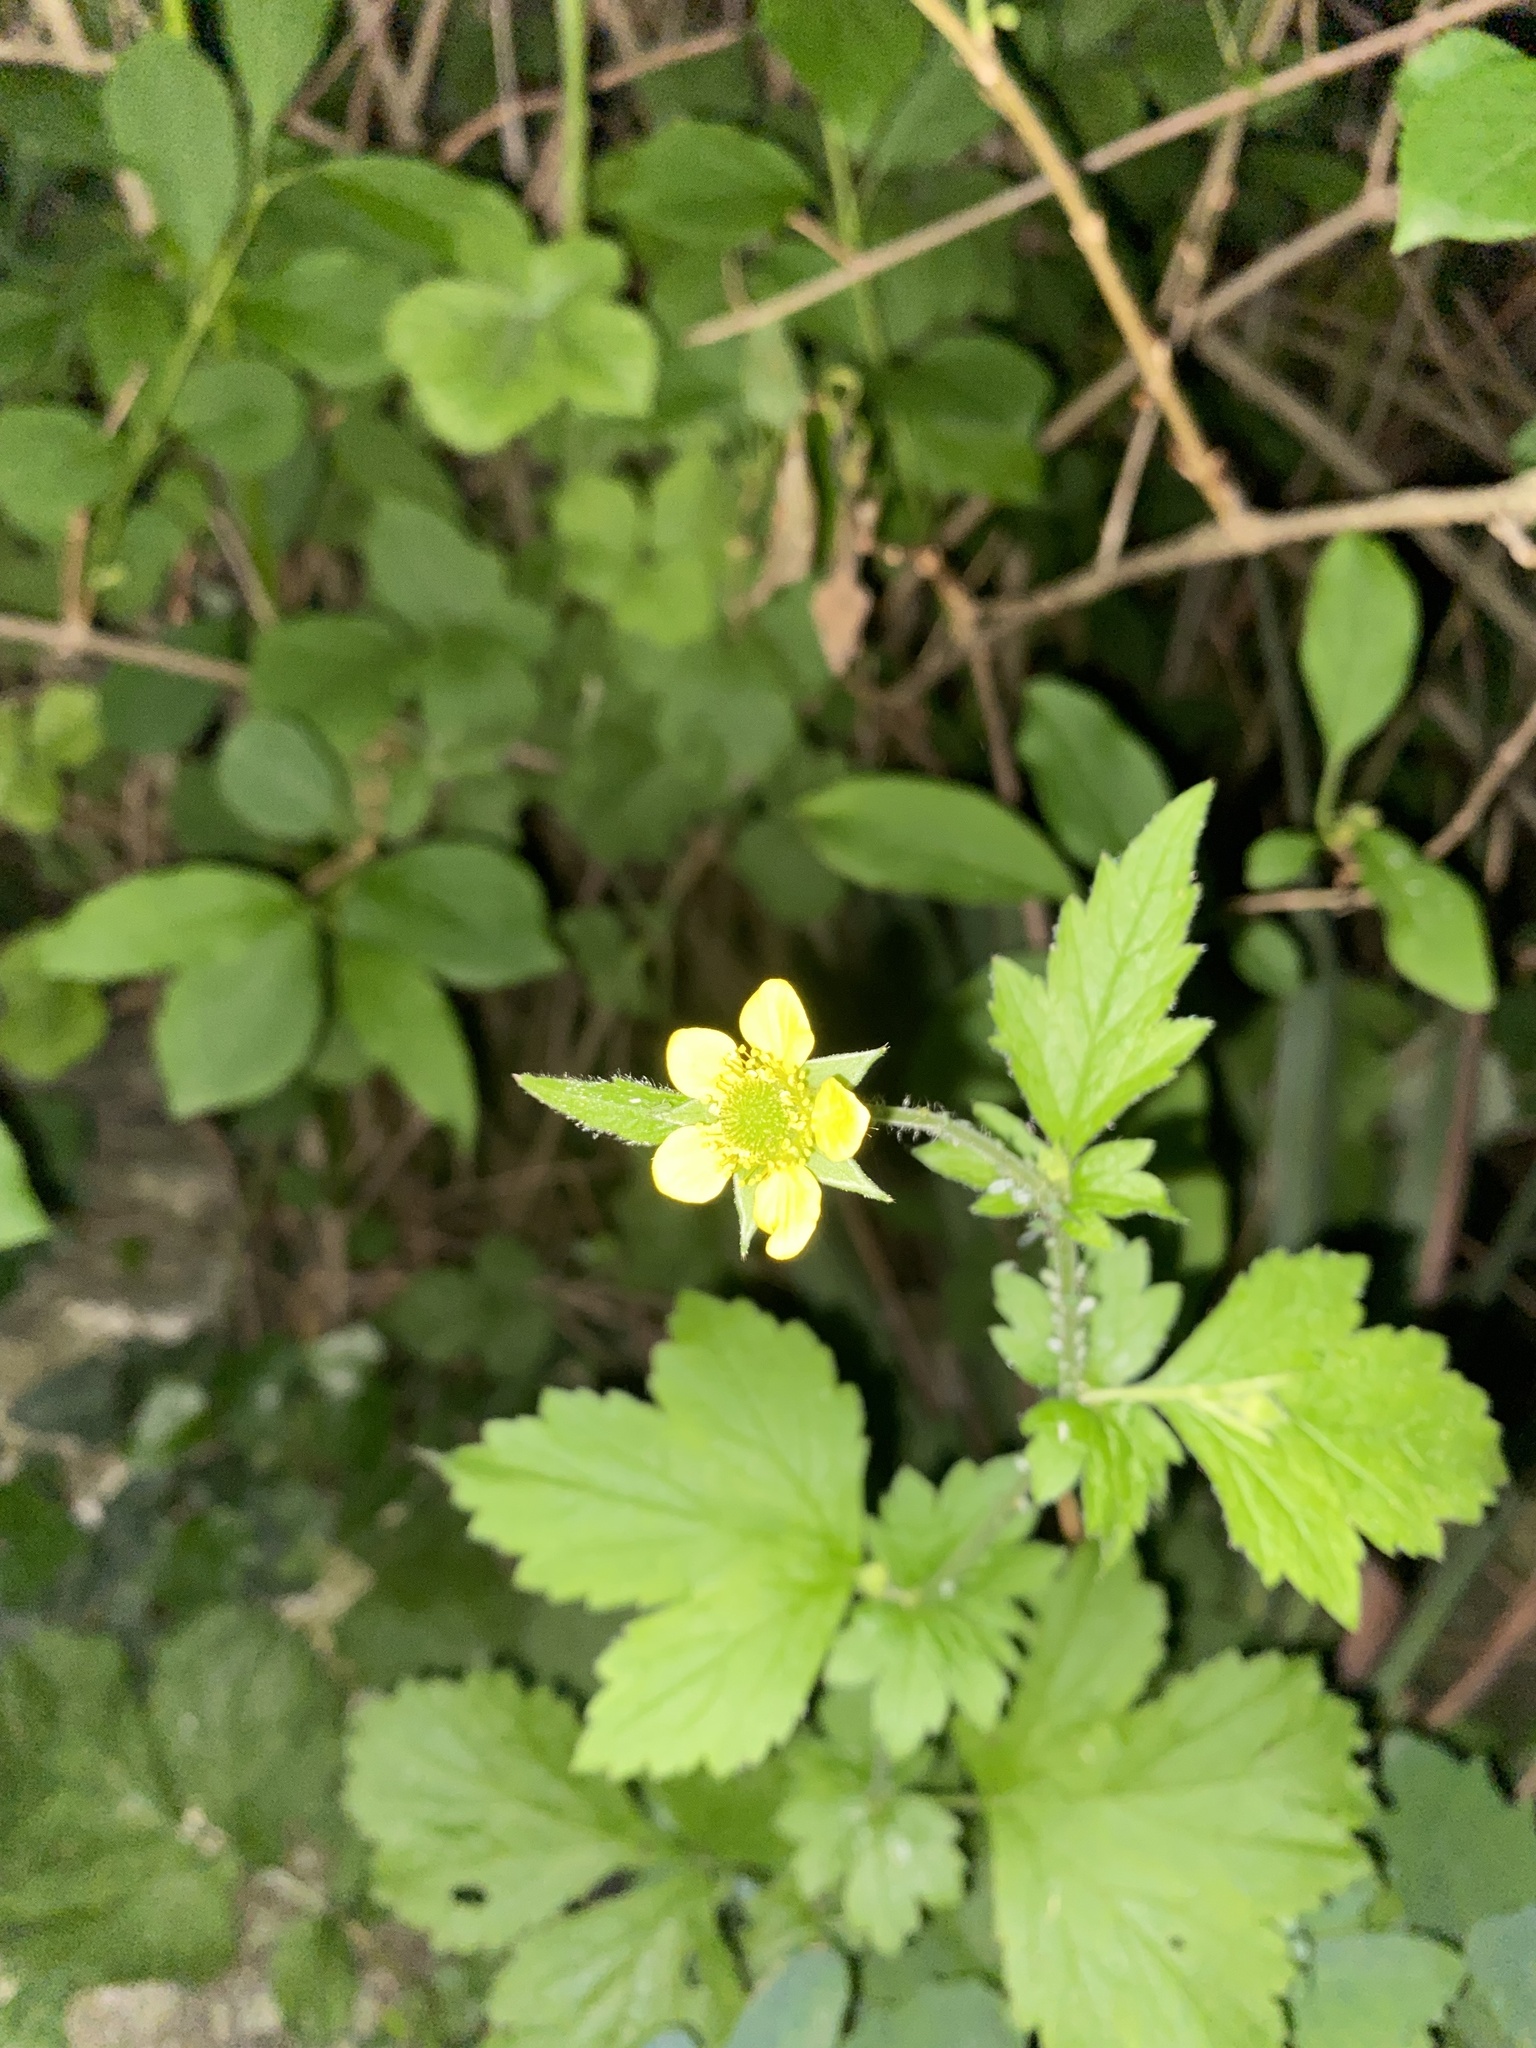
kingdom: Plantae
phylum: Tracheophyta
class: Magnoliopsida
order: Rosales
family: Rosaceae
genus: Geum
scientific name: Geum urbanum
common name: Wood avens
